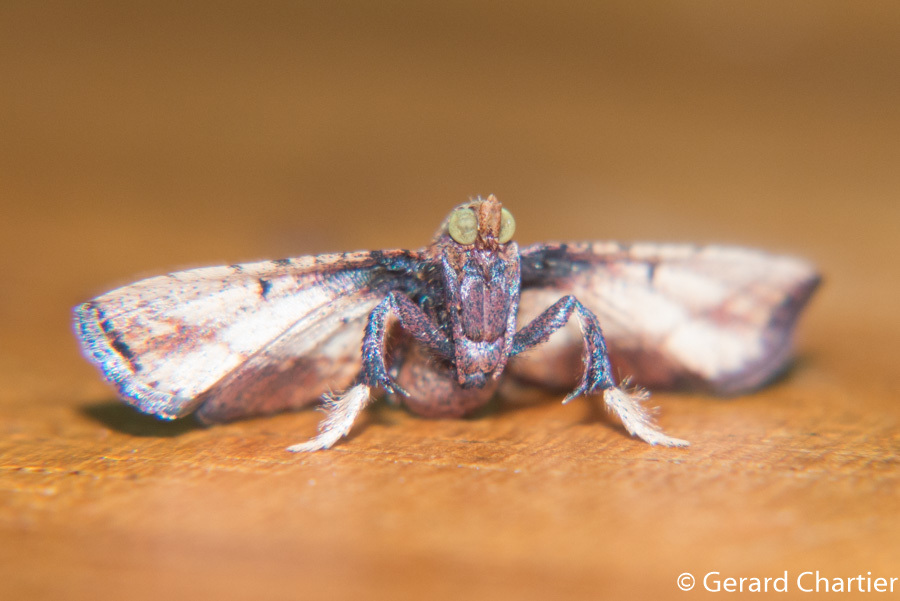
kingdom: Animalia
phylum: Arthropoda
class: Insecta
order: Lepidoptera
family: Pyralidae
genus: Zitha
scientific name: Zitha
